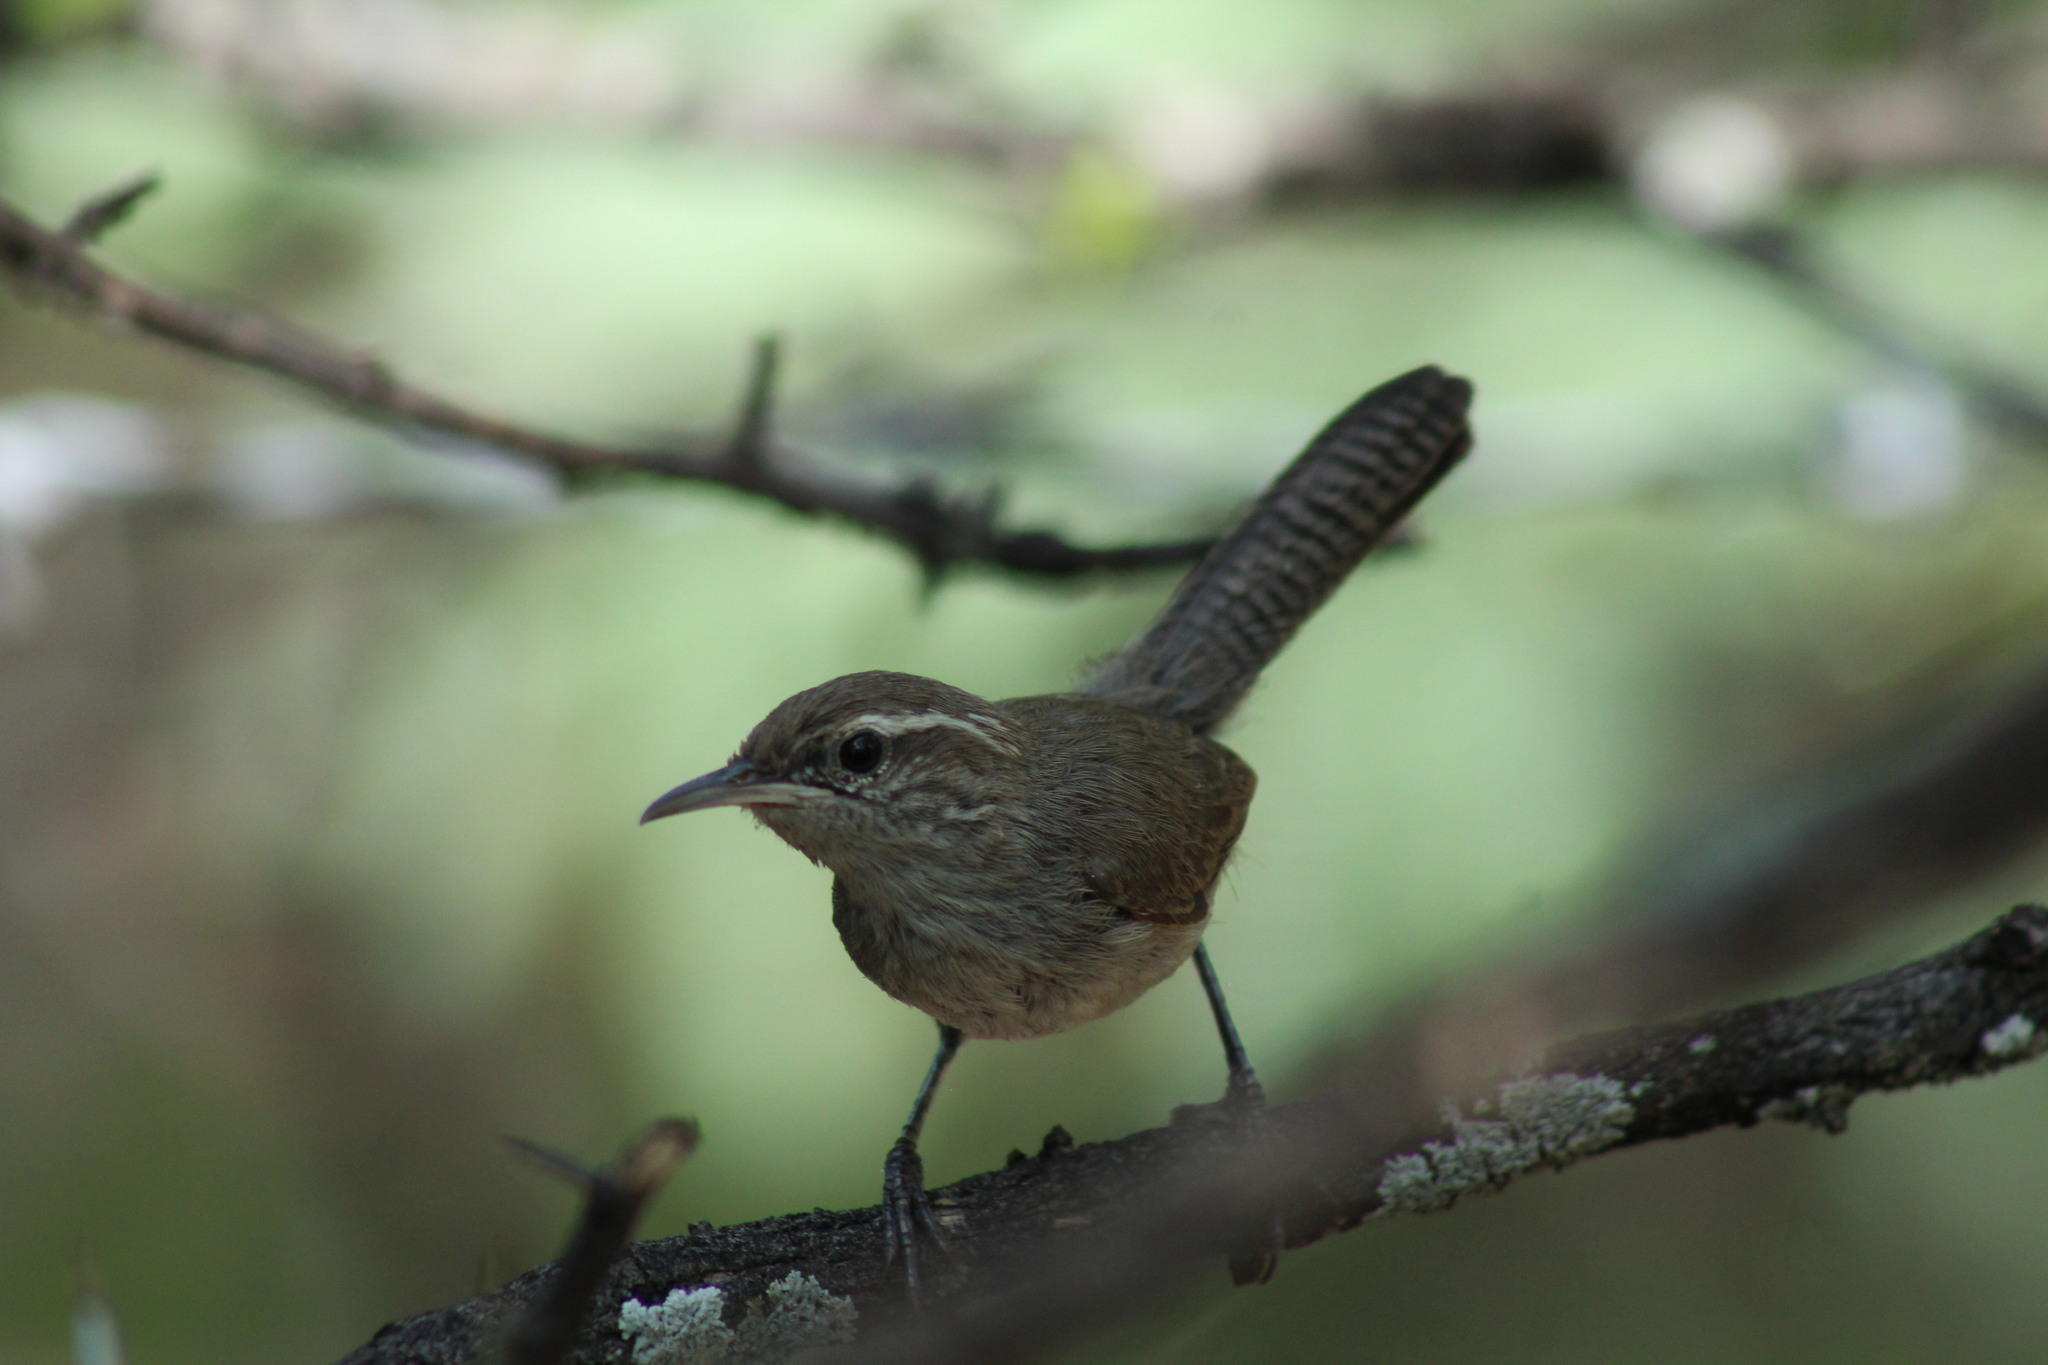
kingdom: Animalia
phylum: Chordata
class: Aves
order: Passeriformes
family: Troglodytidae
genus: Thryomanes
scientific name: Thryomanes bewickii
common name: Bewick's wren
